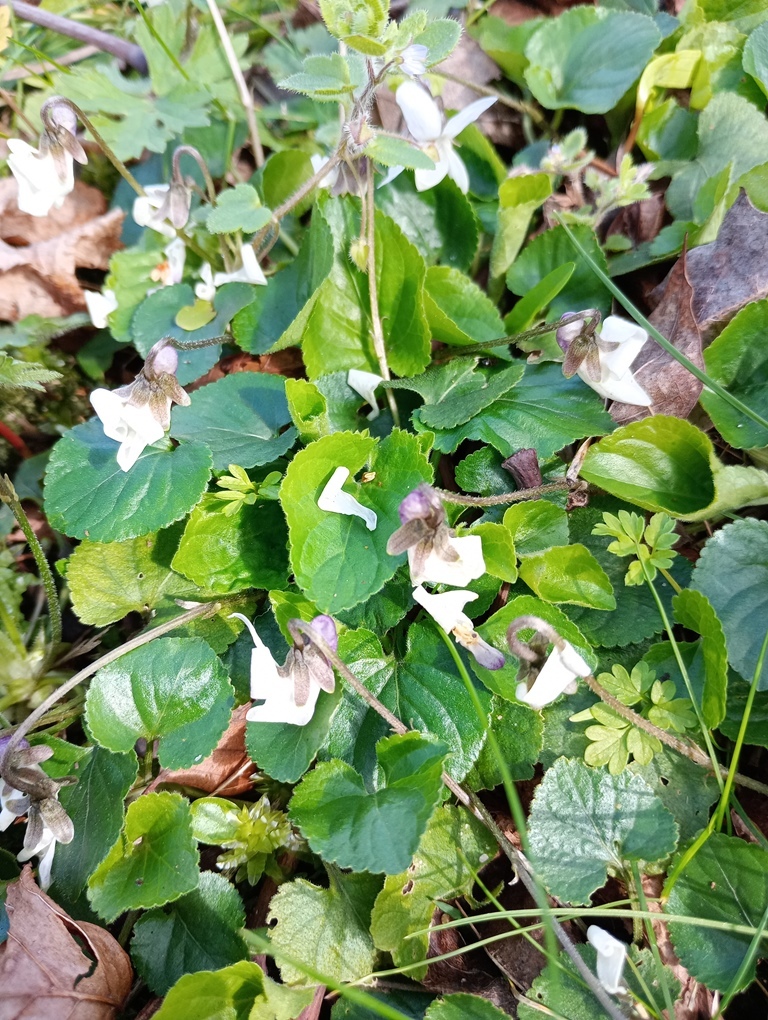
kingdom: Plantae
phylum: Tracheophyta
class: Magnoliopsida
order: Malpighiales
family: Violaceae
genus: Viola
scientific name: Viola odorata
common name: Sweet violet
